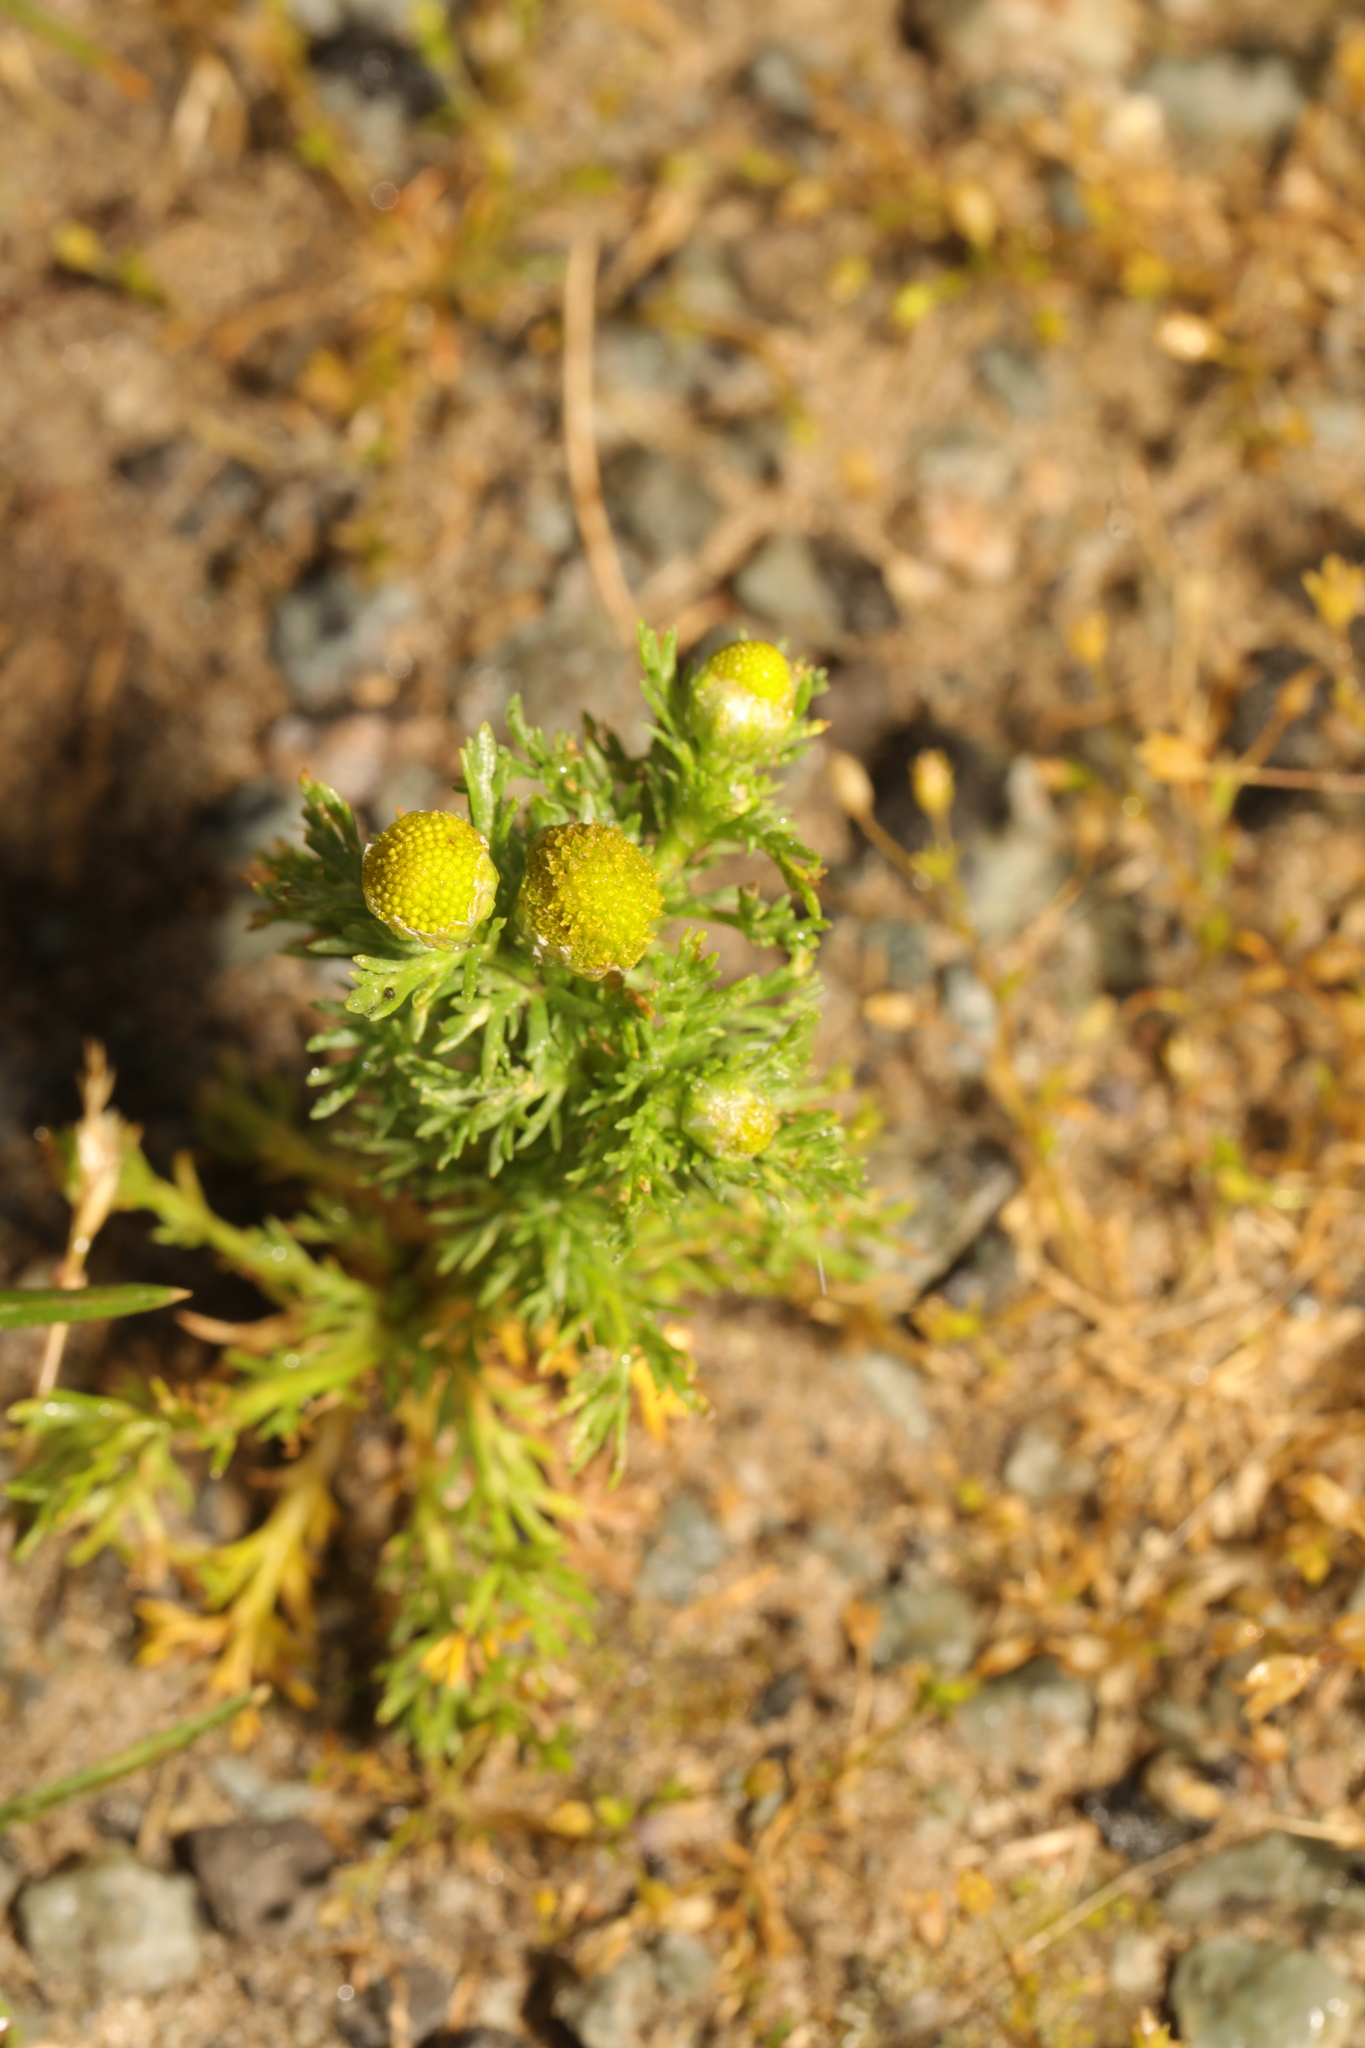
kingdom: Plantae
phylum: Tracheophyta
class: Magnoliopsida
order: Asterales
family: Asteraceae
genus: Matricaria
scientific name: Matricaria discoidea
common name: Disc mayweed
